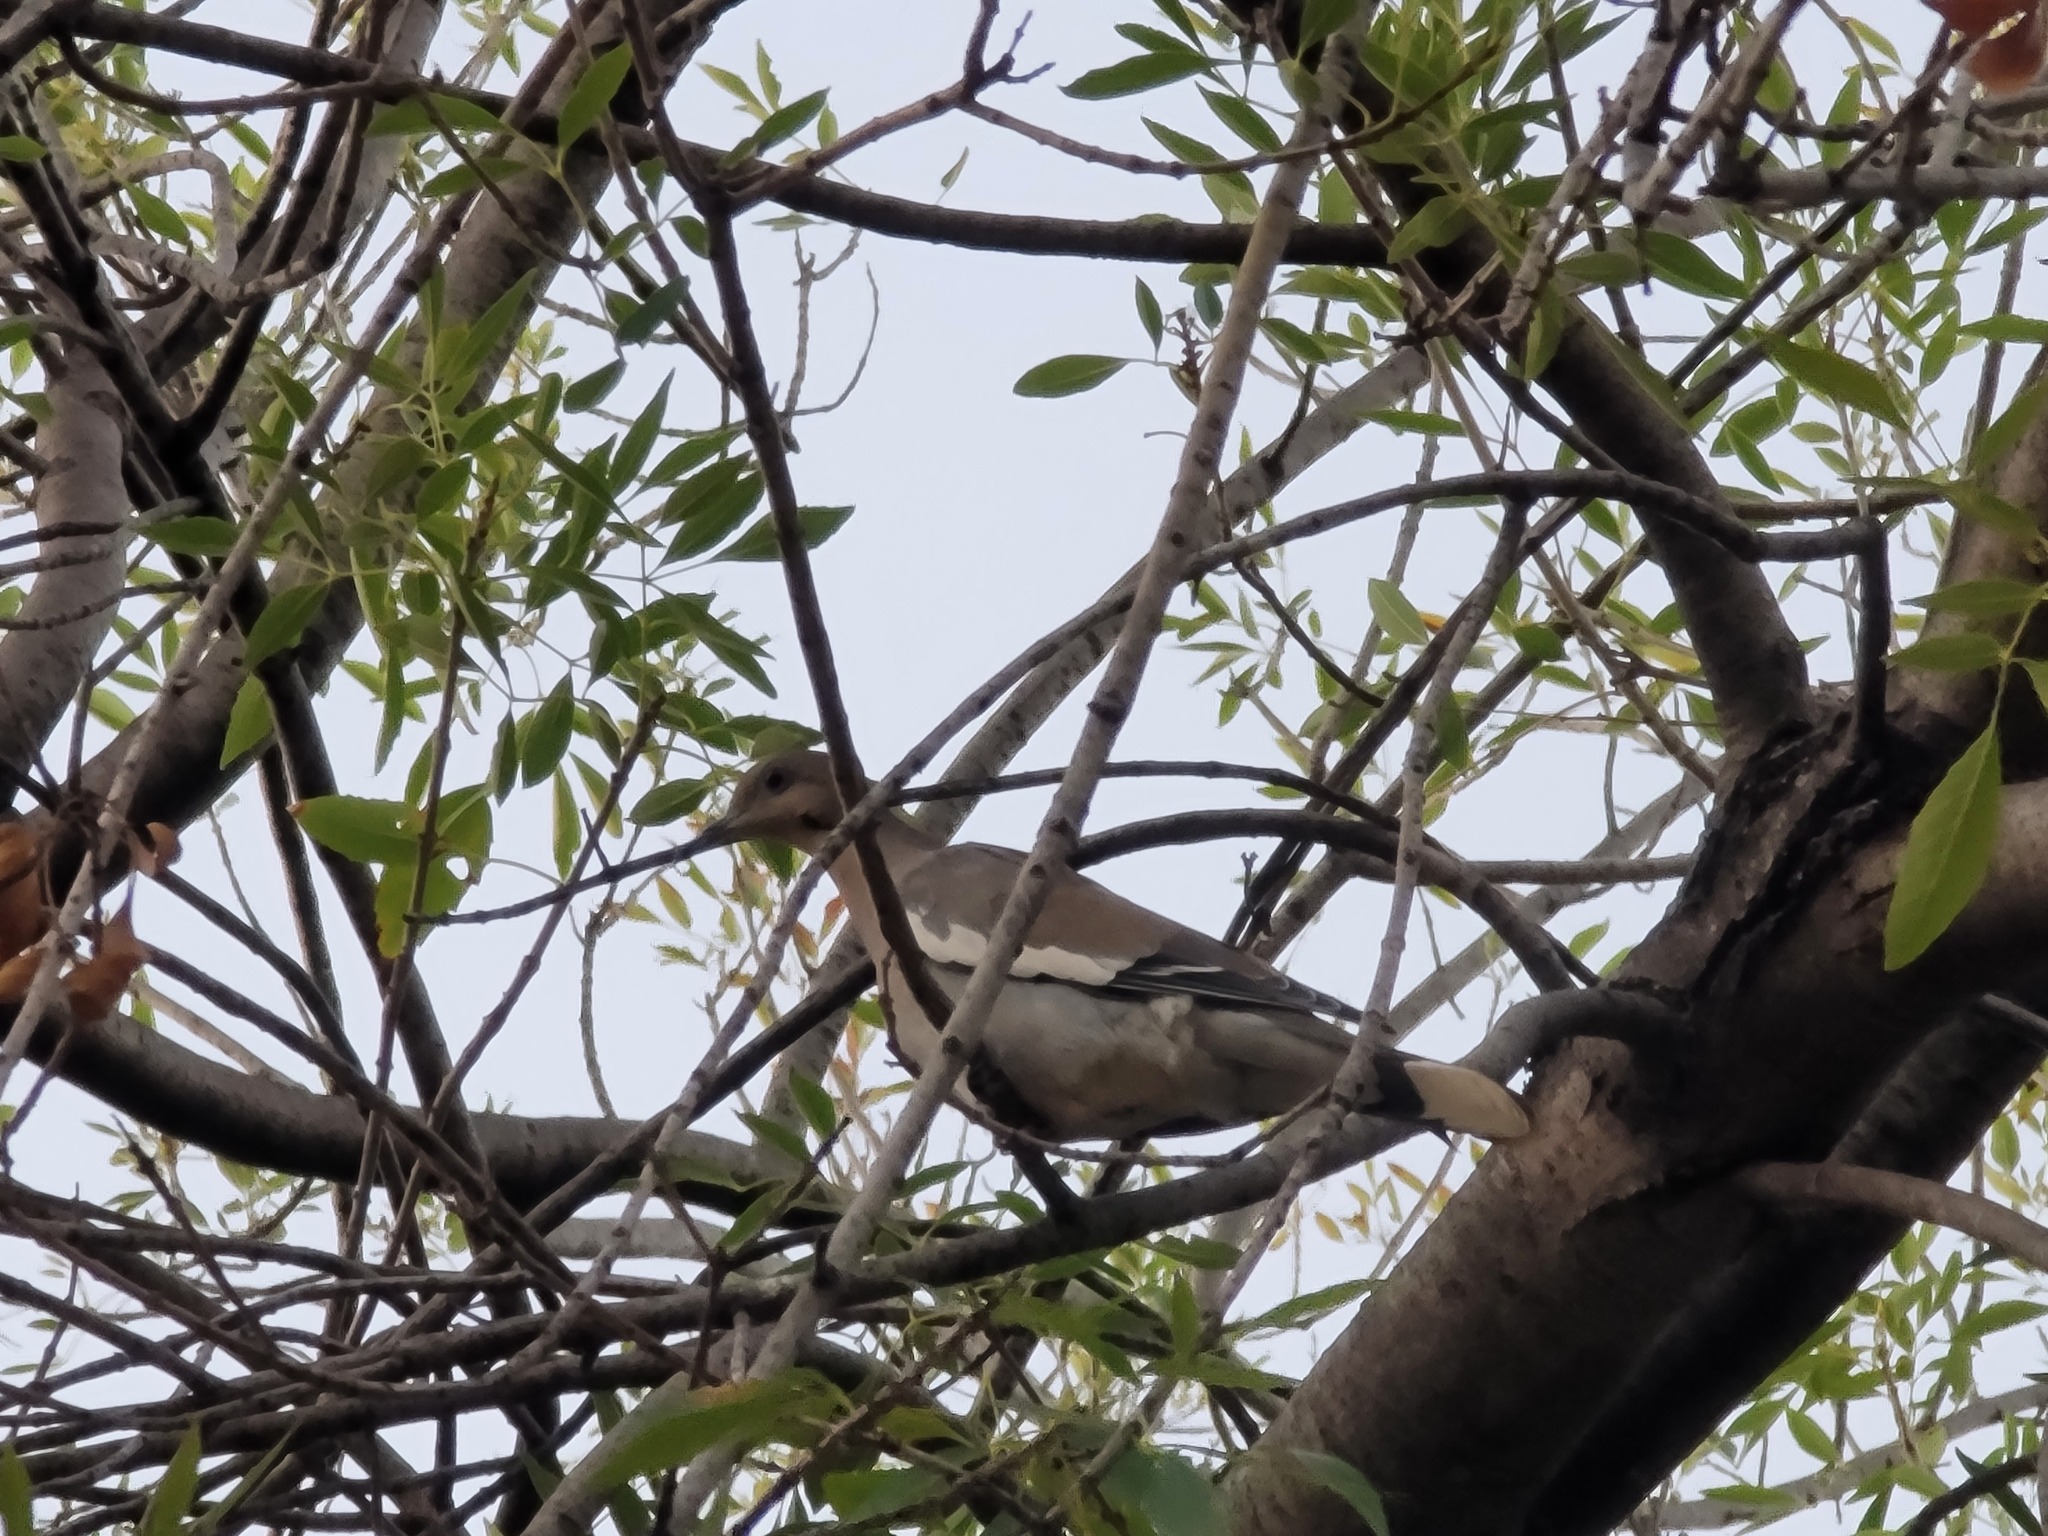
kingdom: Animalia
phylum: Chordata
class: Aves
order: Columbiformes
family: Columbidae
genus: Zenaida
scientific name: Zenaida asiatica
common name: White-winged dove
